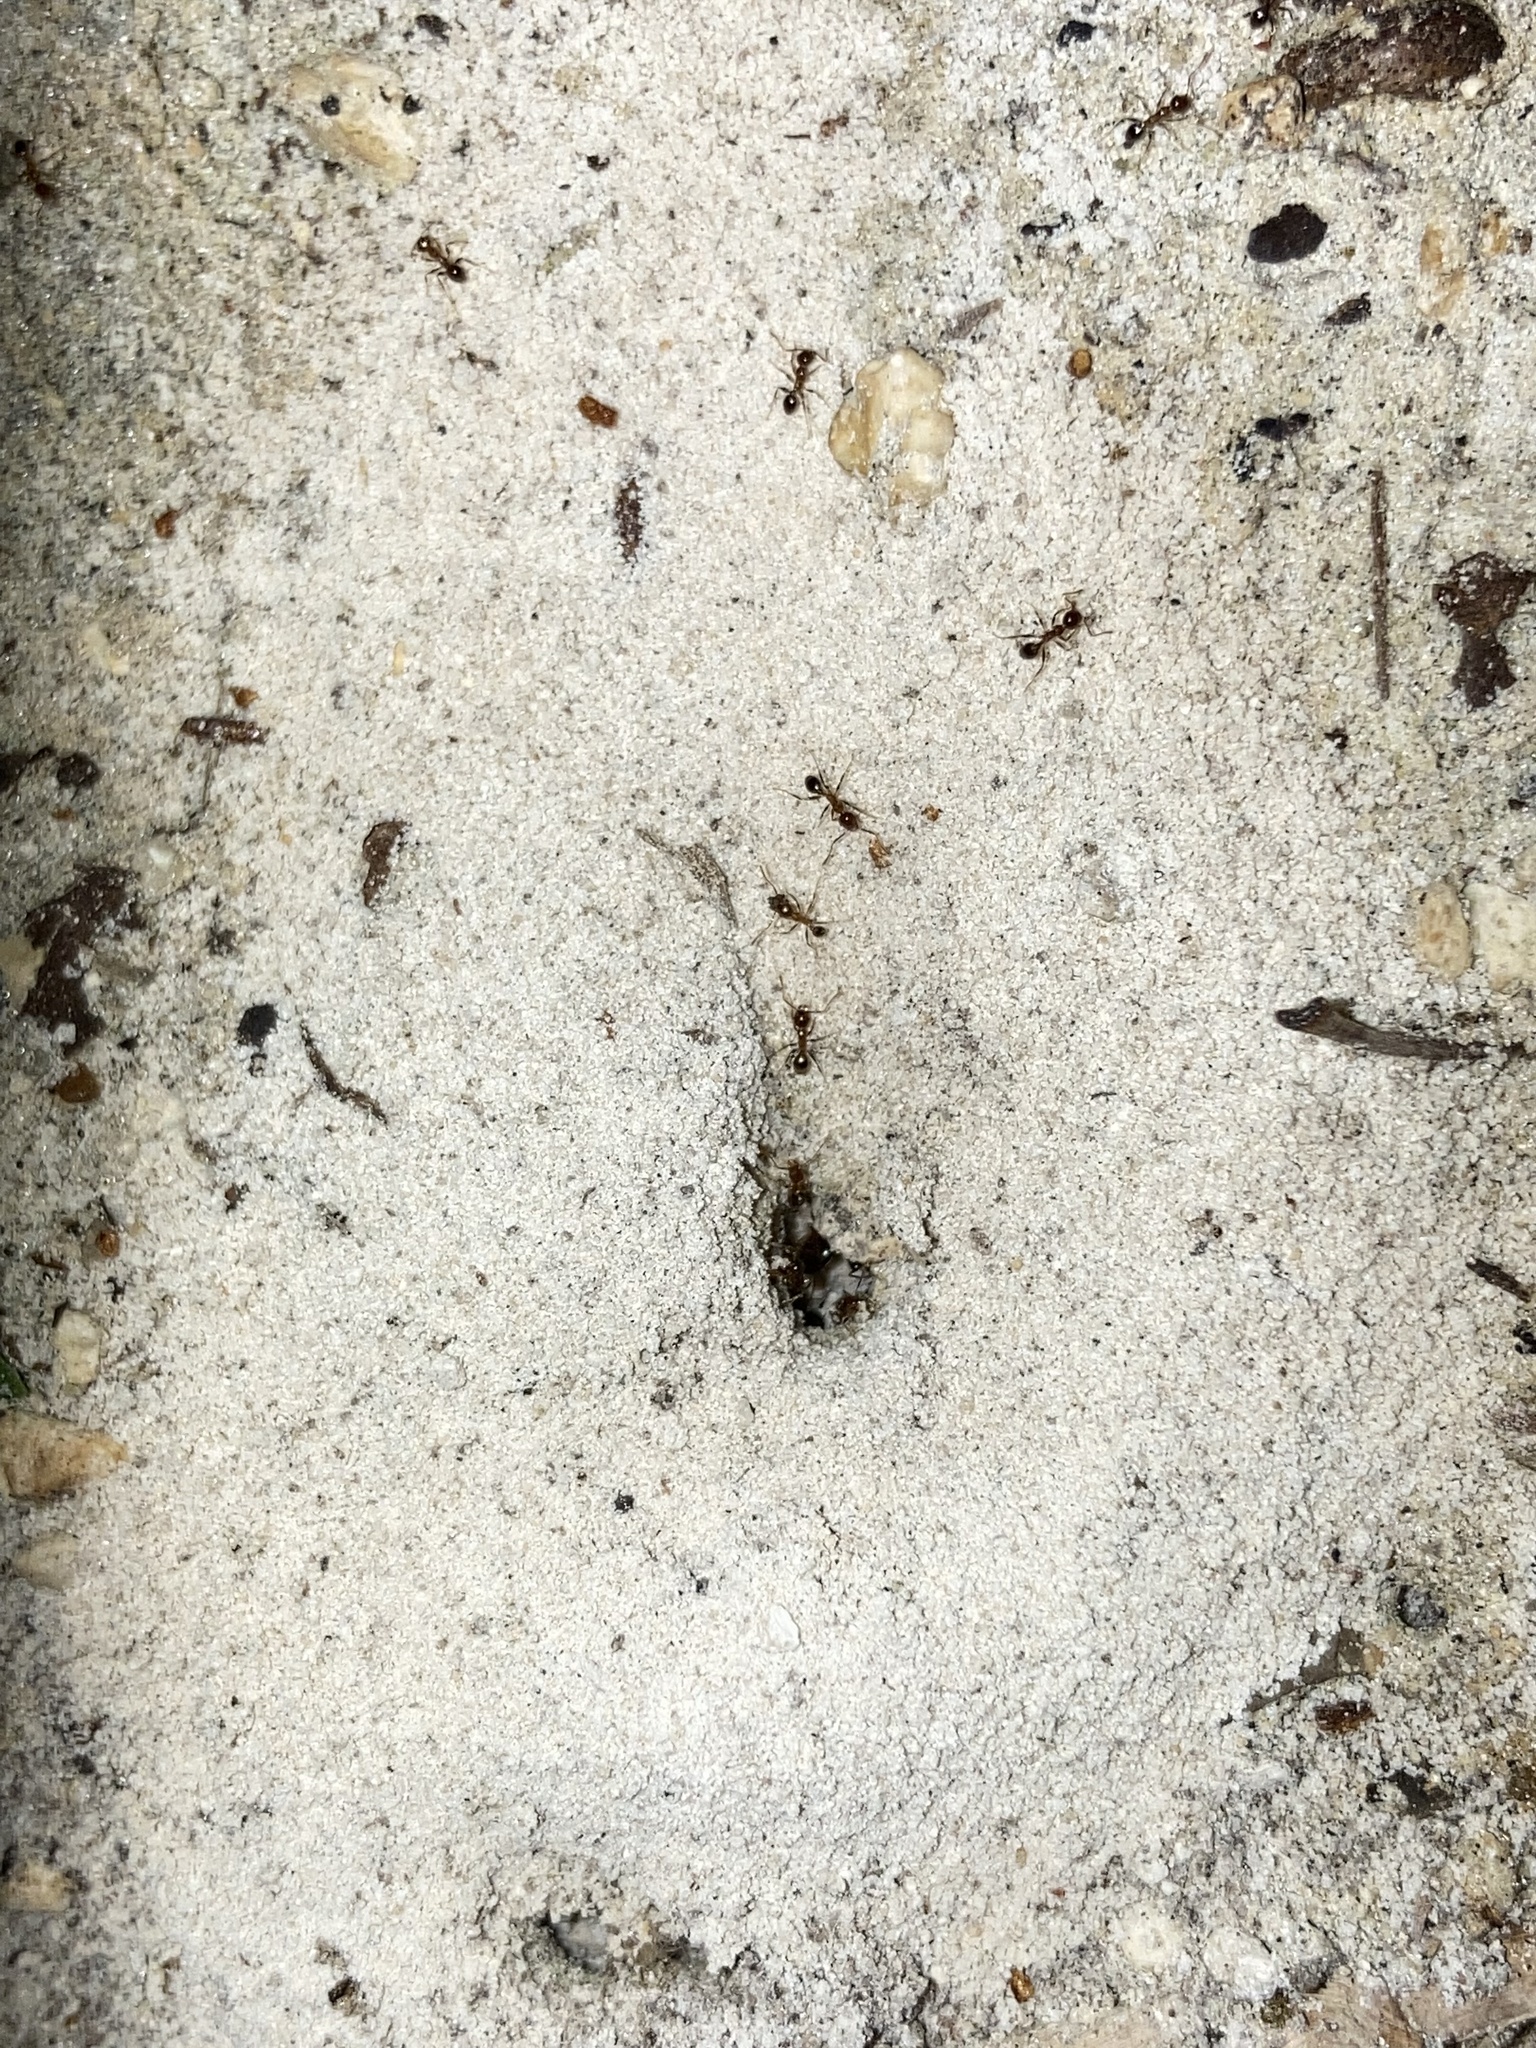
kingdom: Animalia
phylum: Arthropoda
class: Insecta
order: Hymenoptera
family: Formicidae
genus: Pheidole
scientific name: Pheidole megacephala
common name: Bigheaded ant
